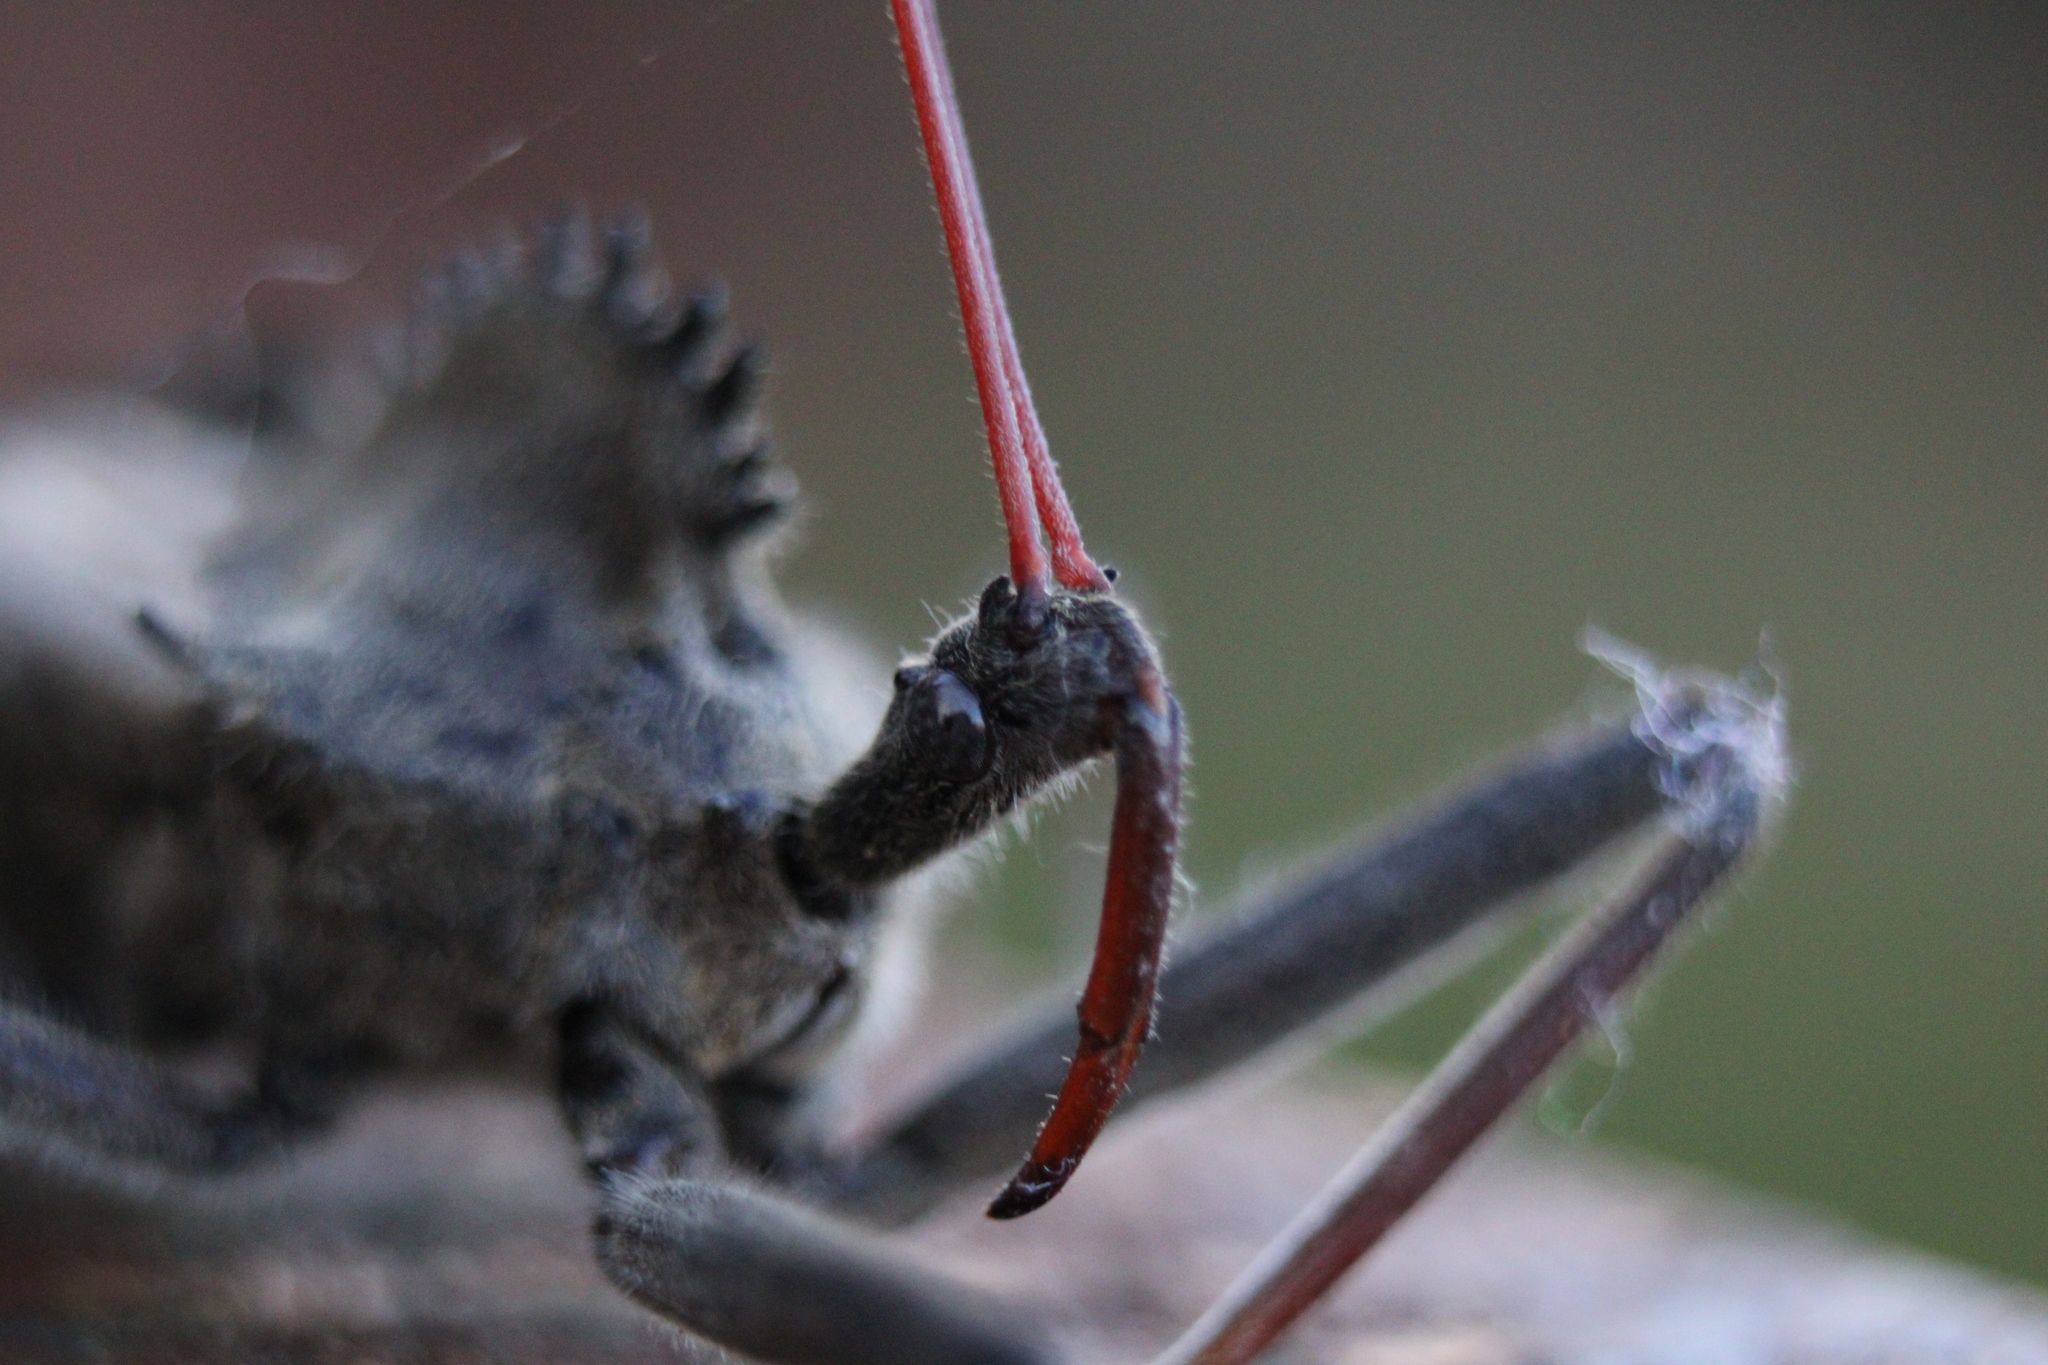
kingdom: Animalia
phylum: Arthropoda
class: Insecta
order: Hemiptera
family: Reduviidae
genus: Arilus
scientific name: Arilus cristatus
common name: North american wheel bug
